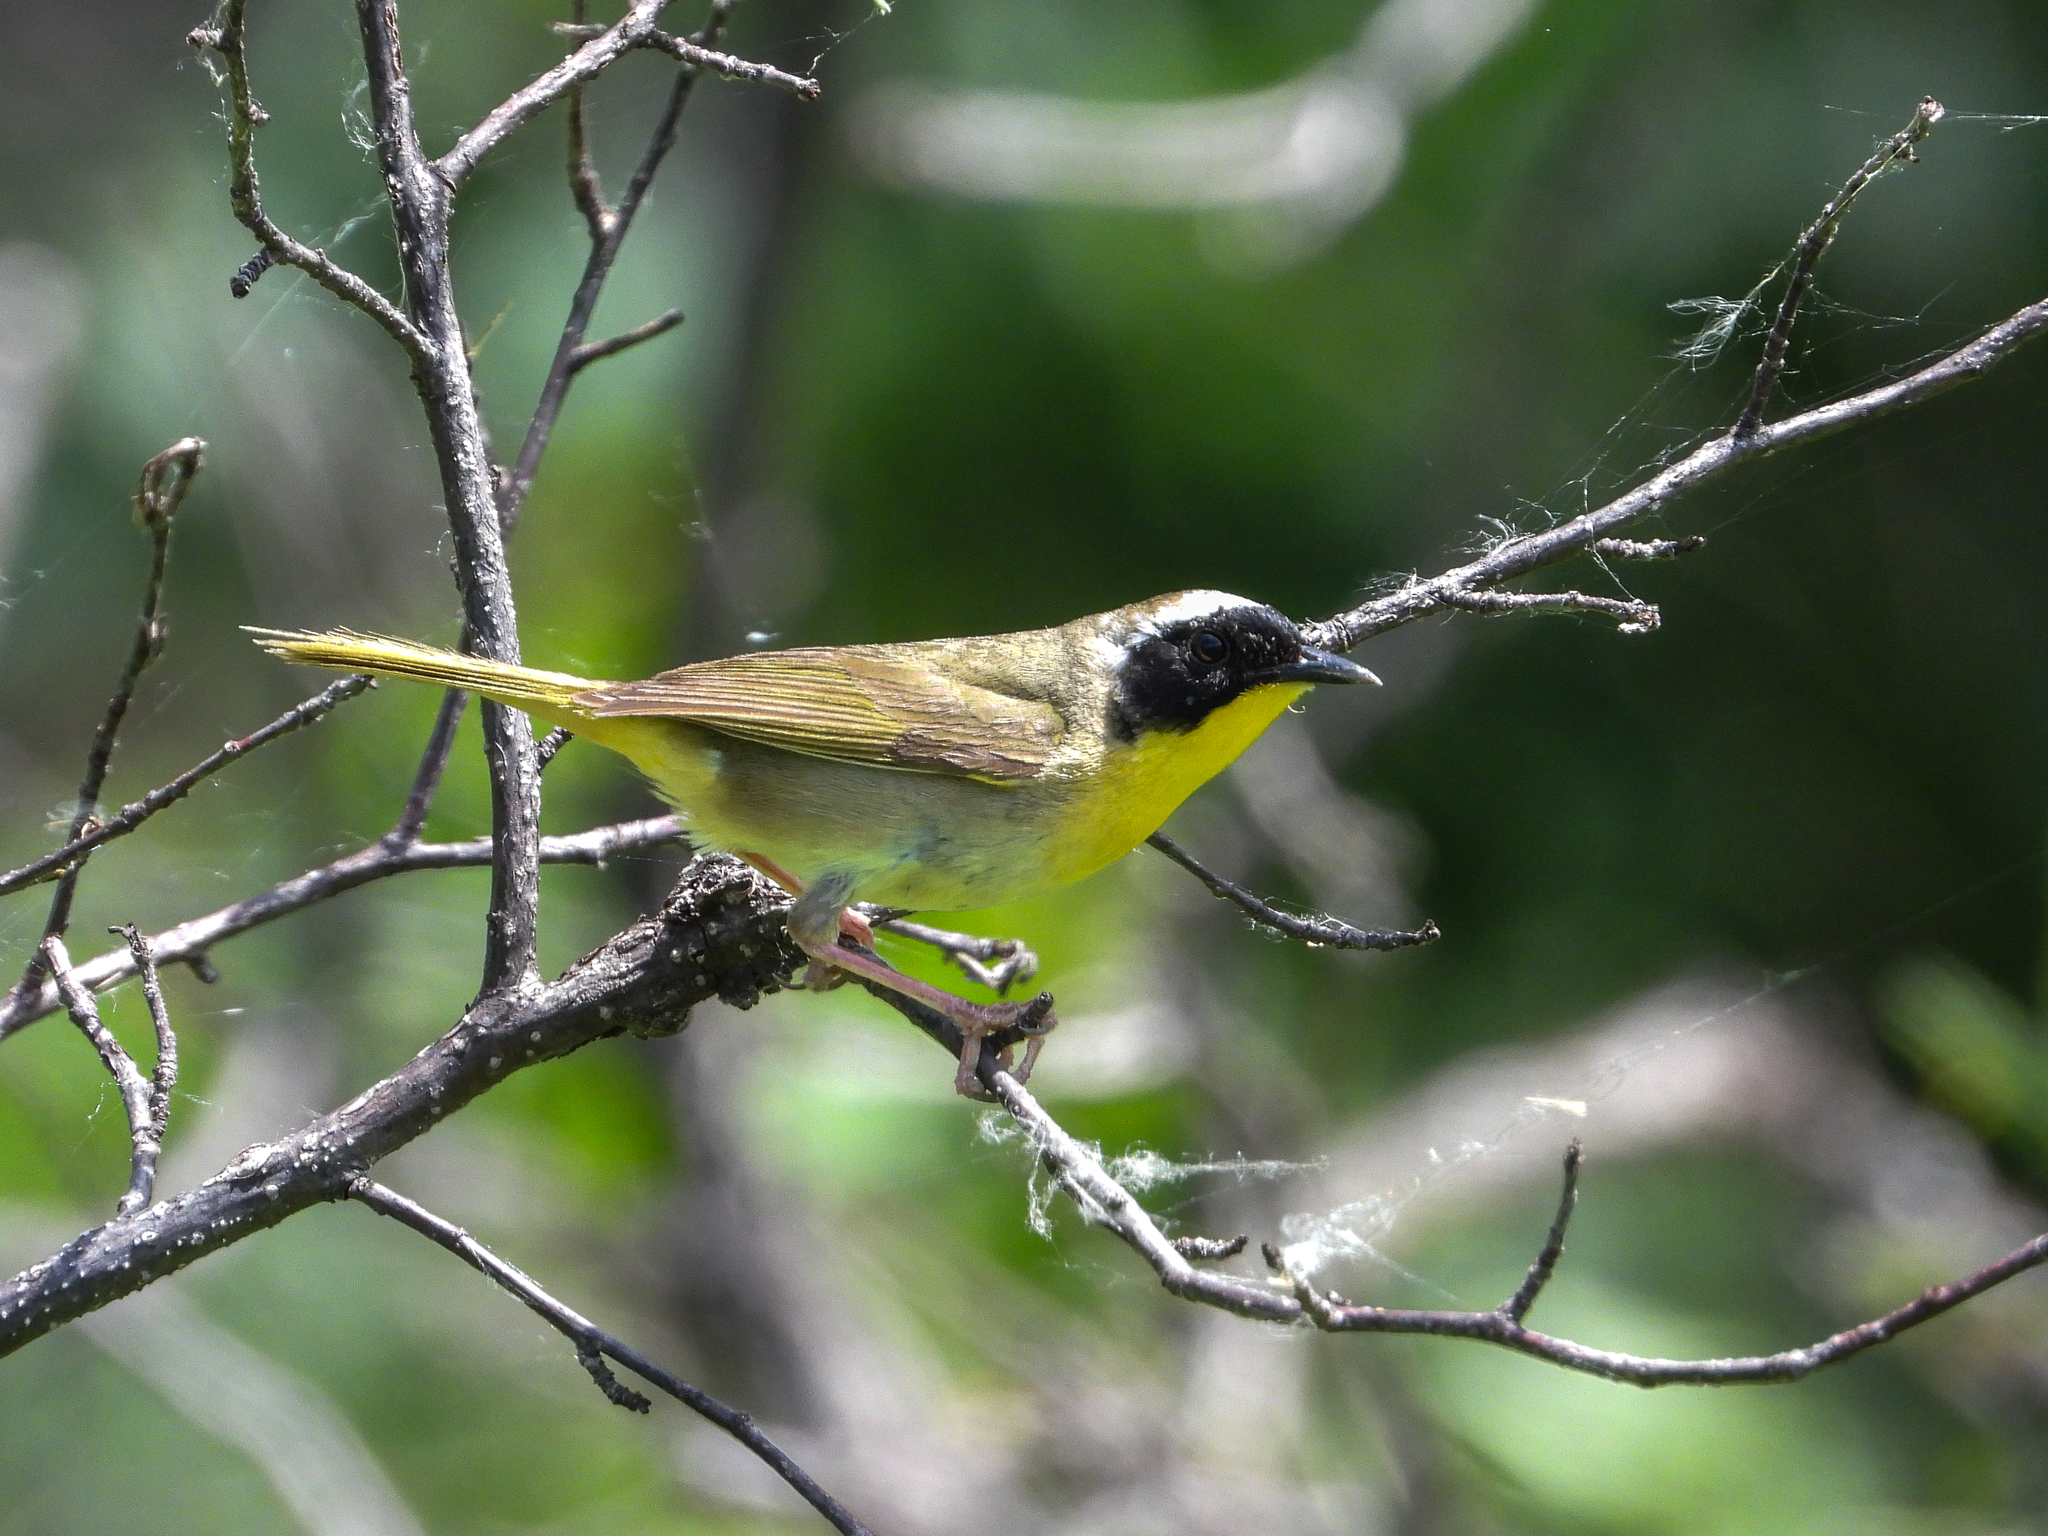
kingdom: Animalia
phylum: Chordata
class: Aves
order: Passeriformes
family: Parulidae
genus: Geothlypis
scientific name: Geothlypis trichas
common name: Common yellowthroat
